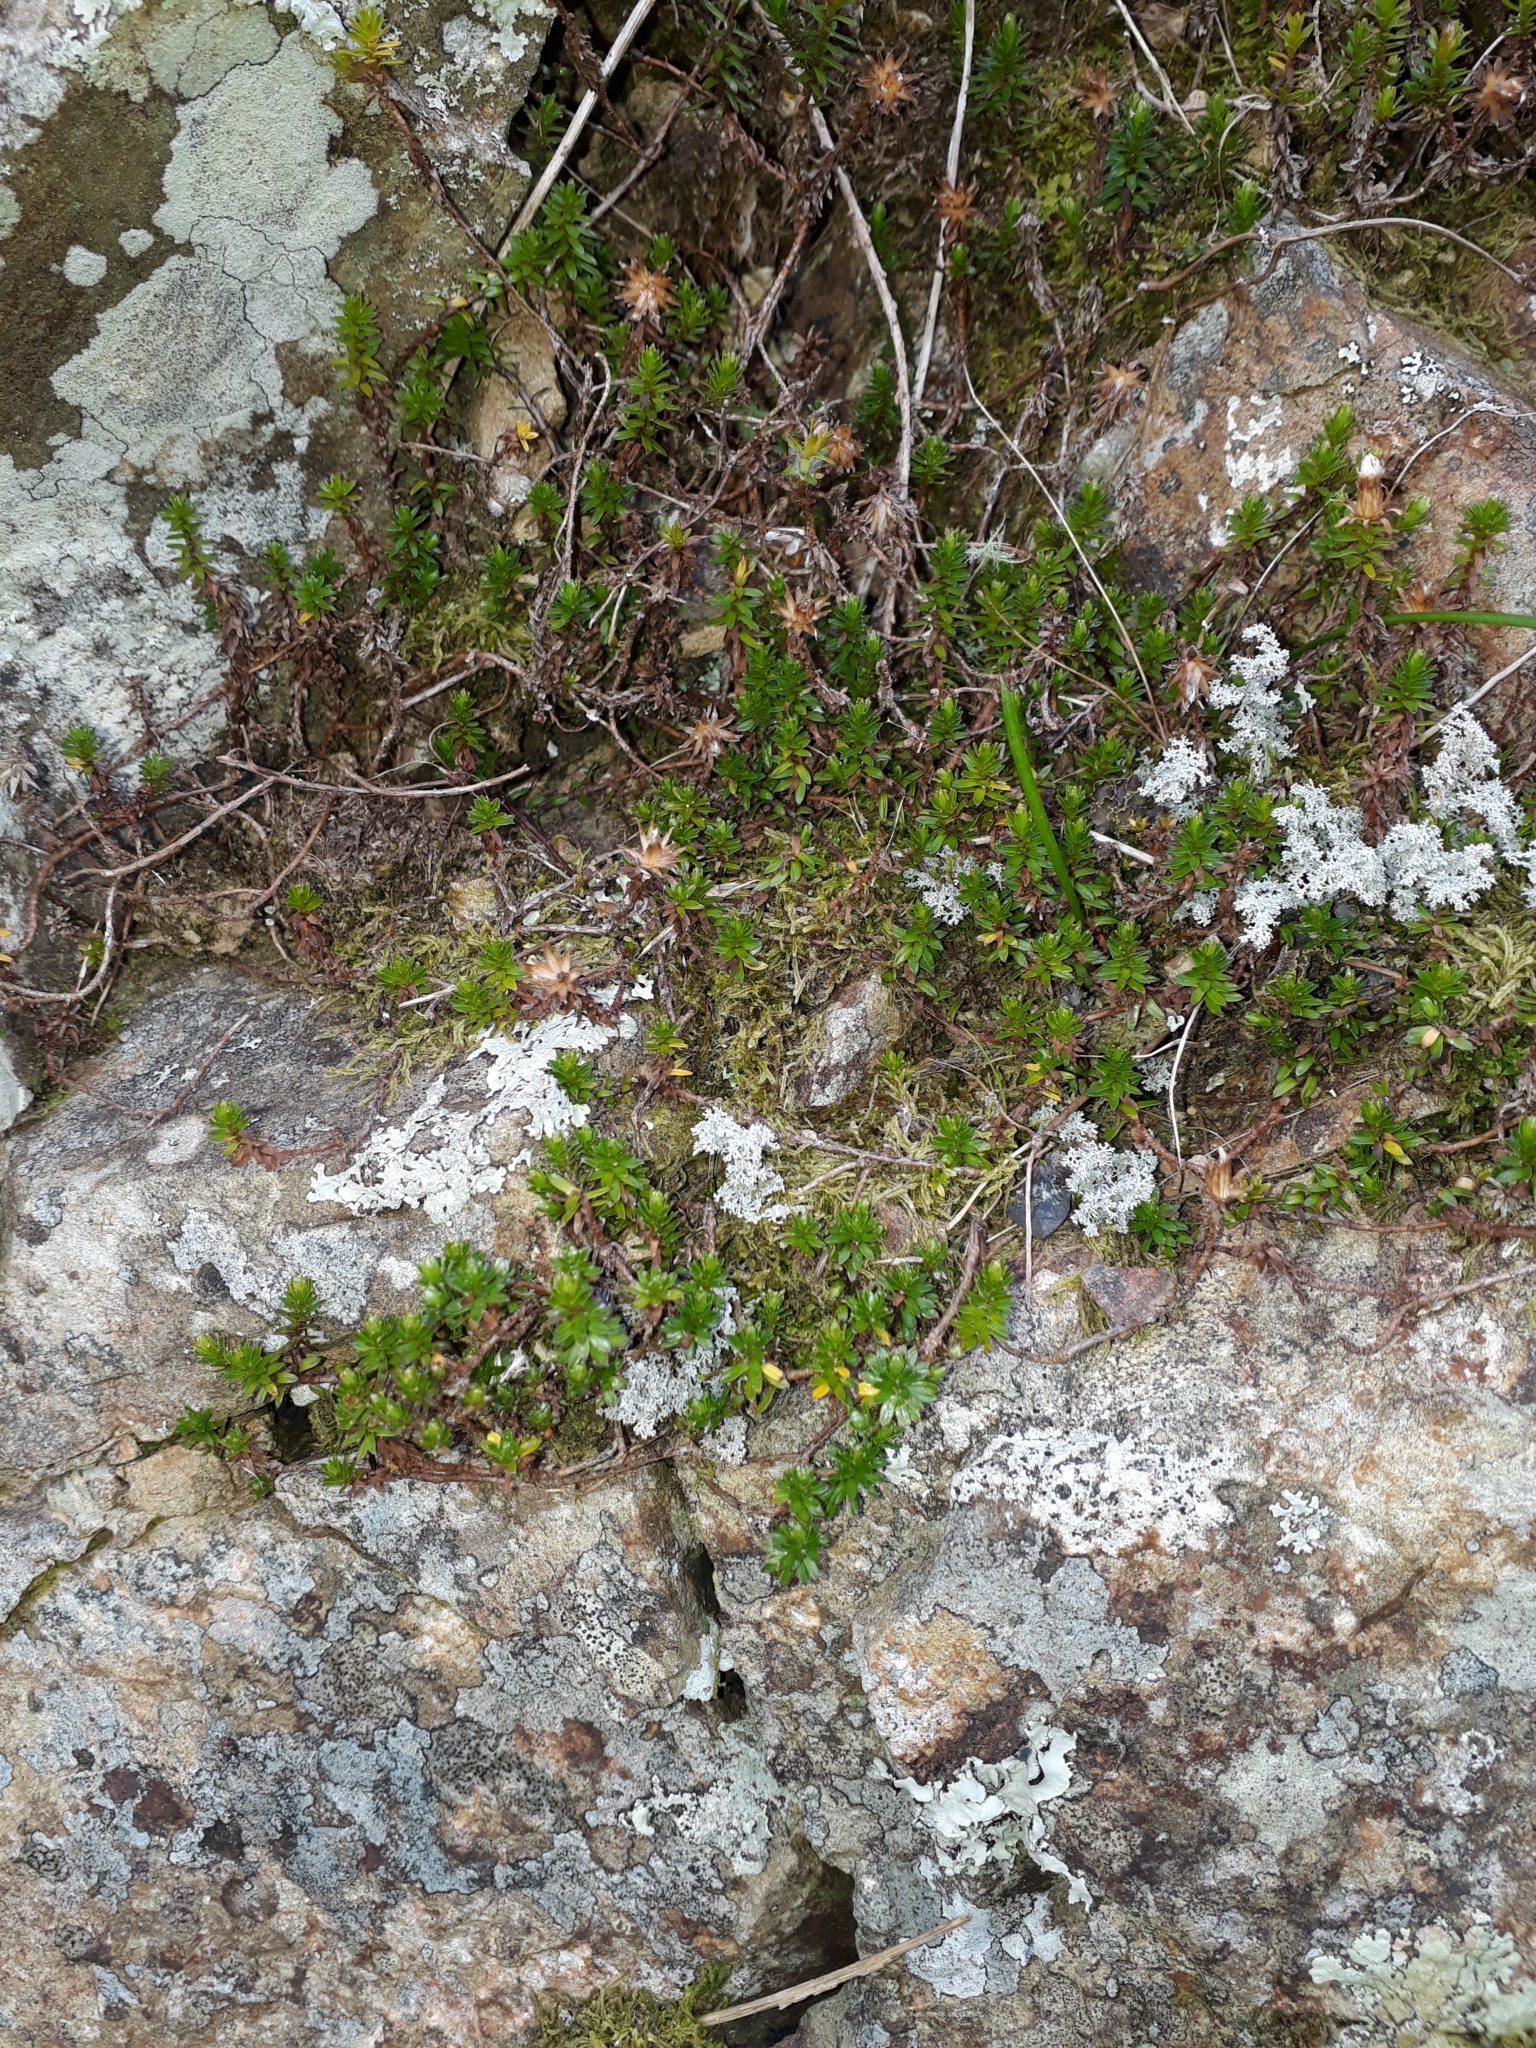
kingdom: Plantae
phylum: Tracheophyta
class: Magnoliopsida
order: Asterales
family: Asteraceae
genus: Raoulia
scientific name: Raoulia glabra
